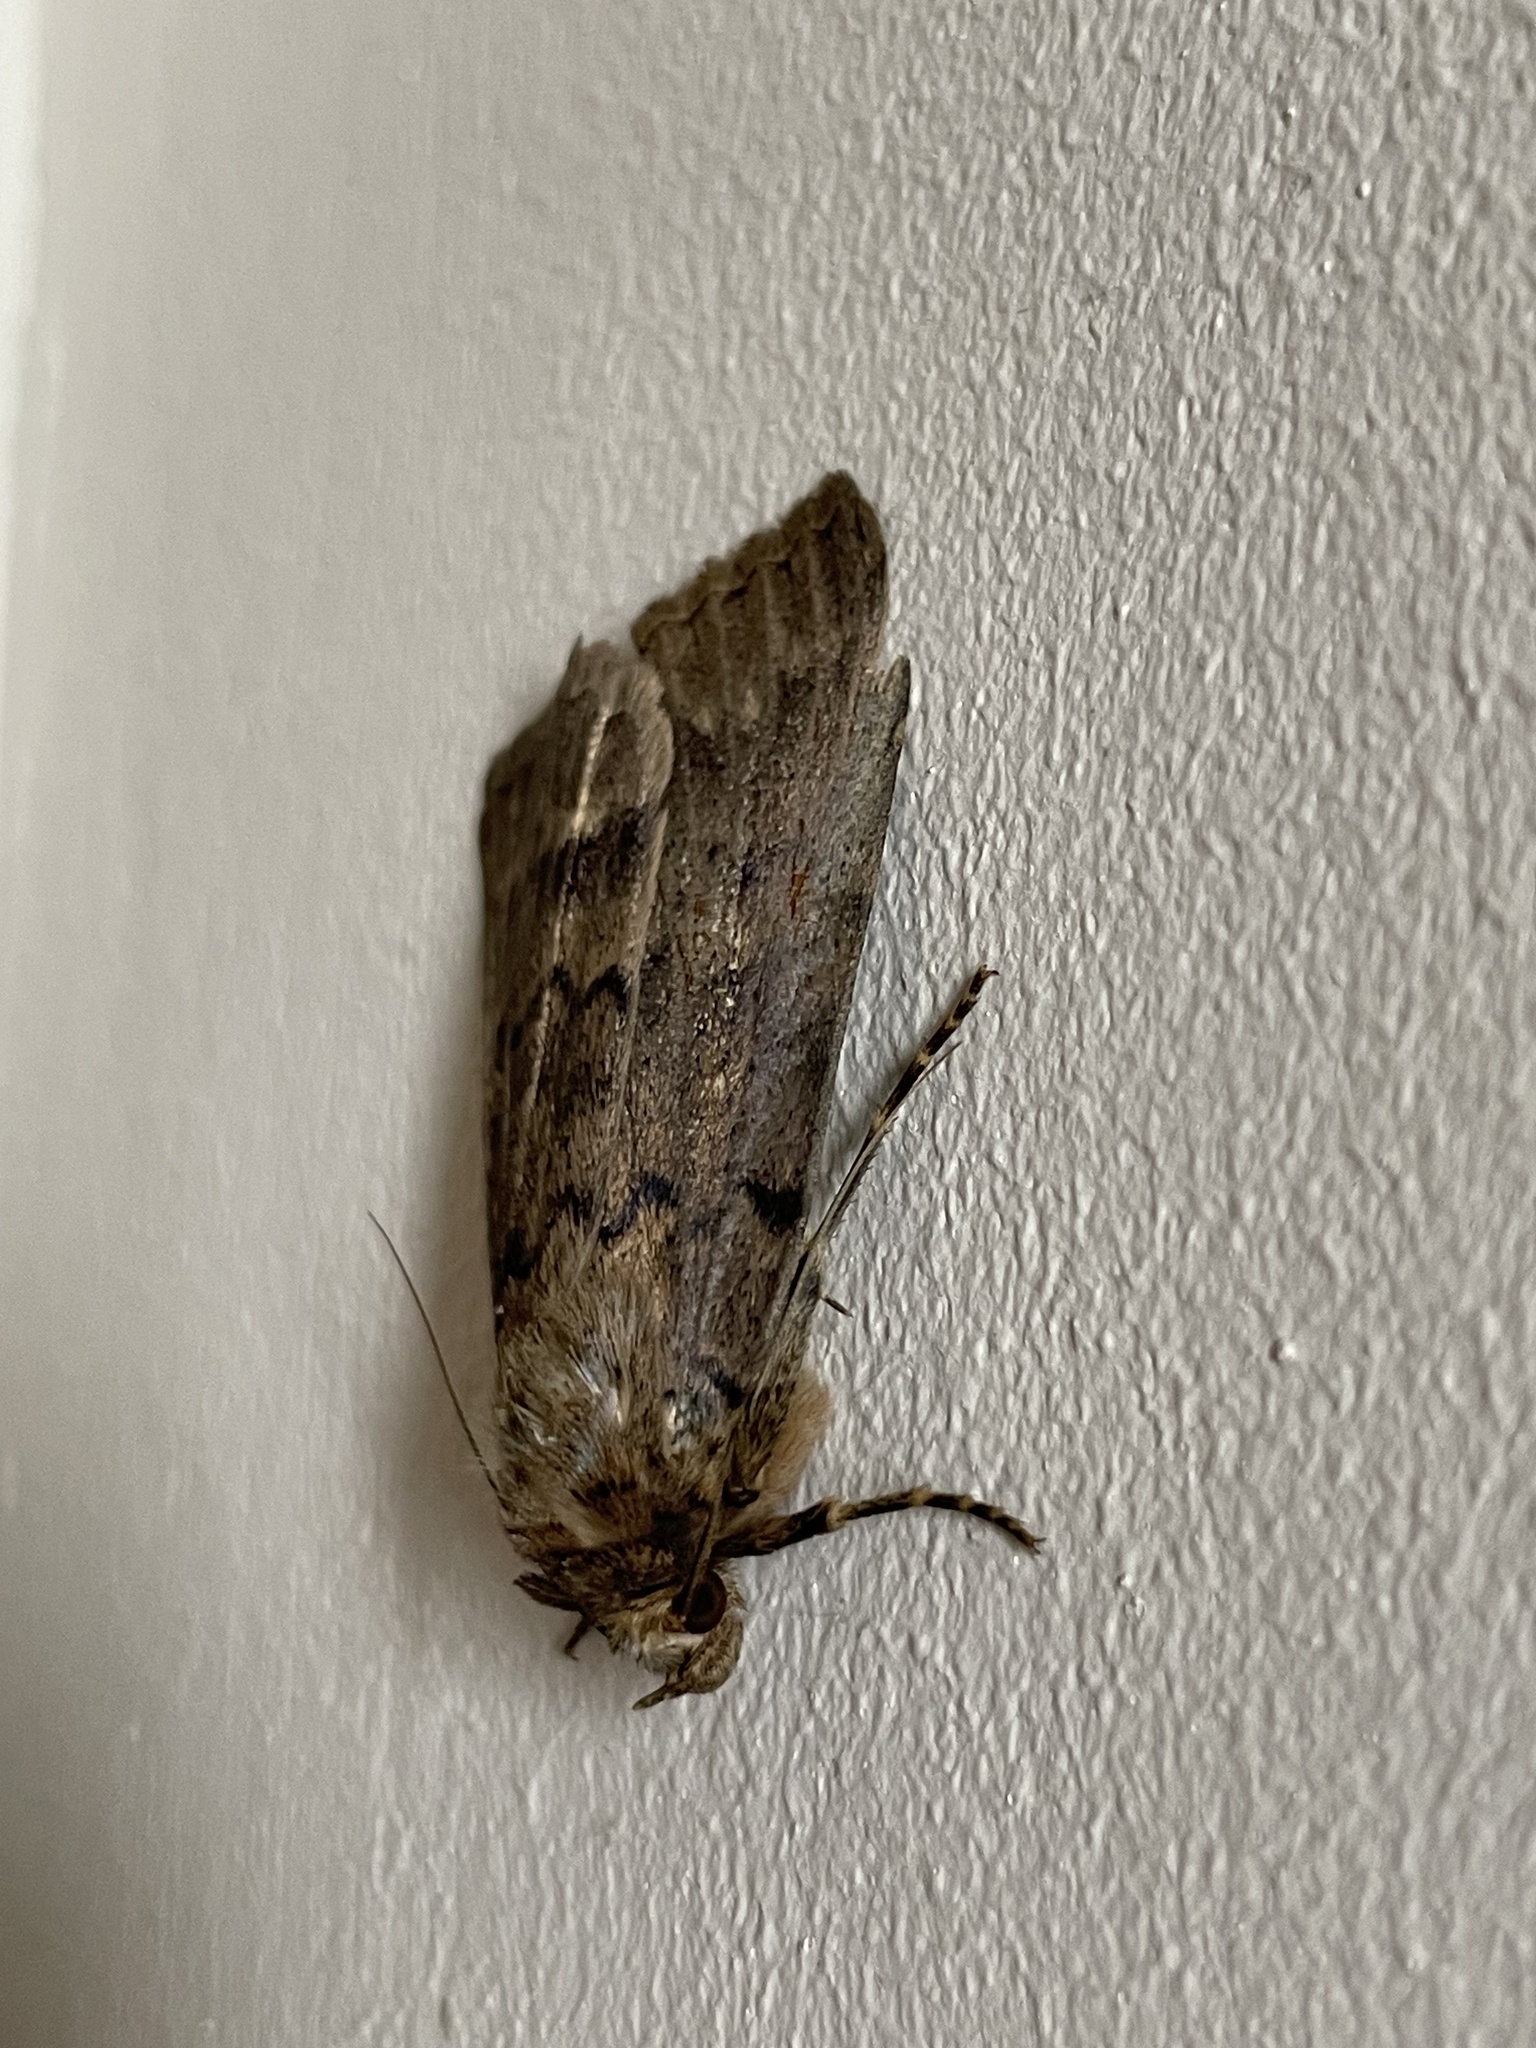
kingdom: Animalia
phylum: Arthropoda
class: Insecta
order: Lepidoptera
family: Erebidae
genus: Apopestes
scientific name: Apopestes spectrum
